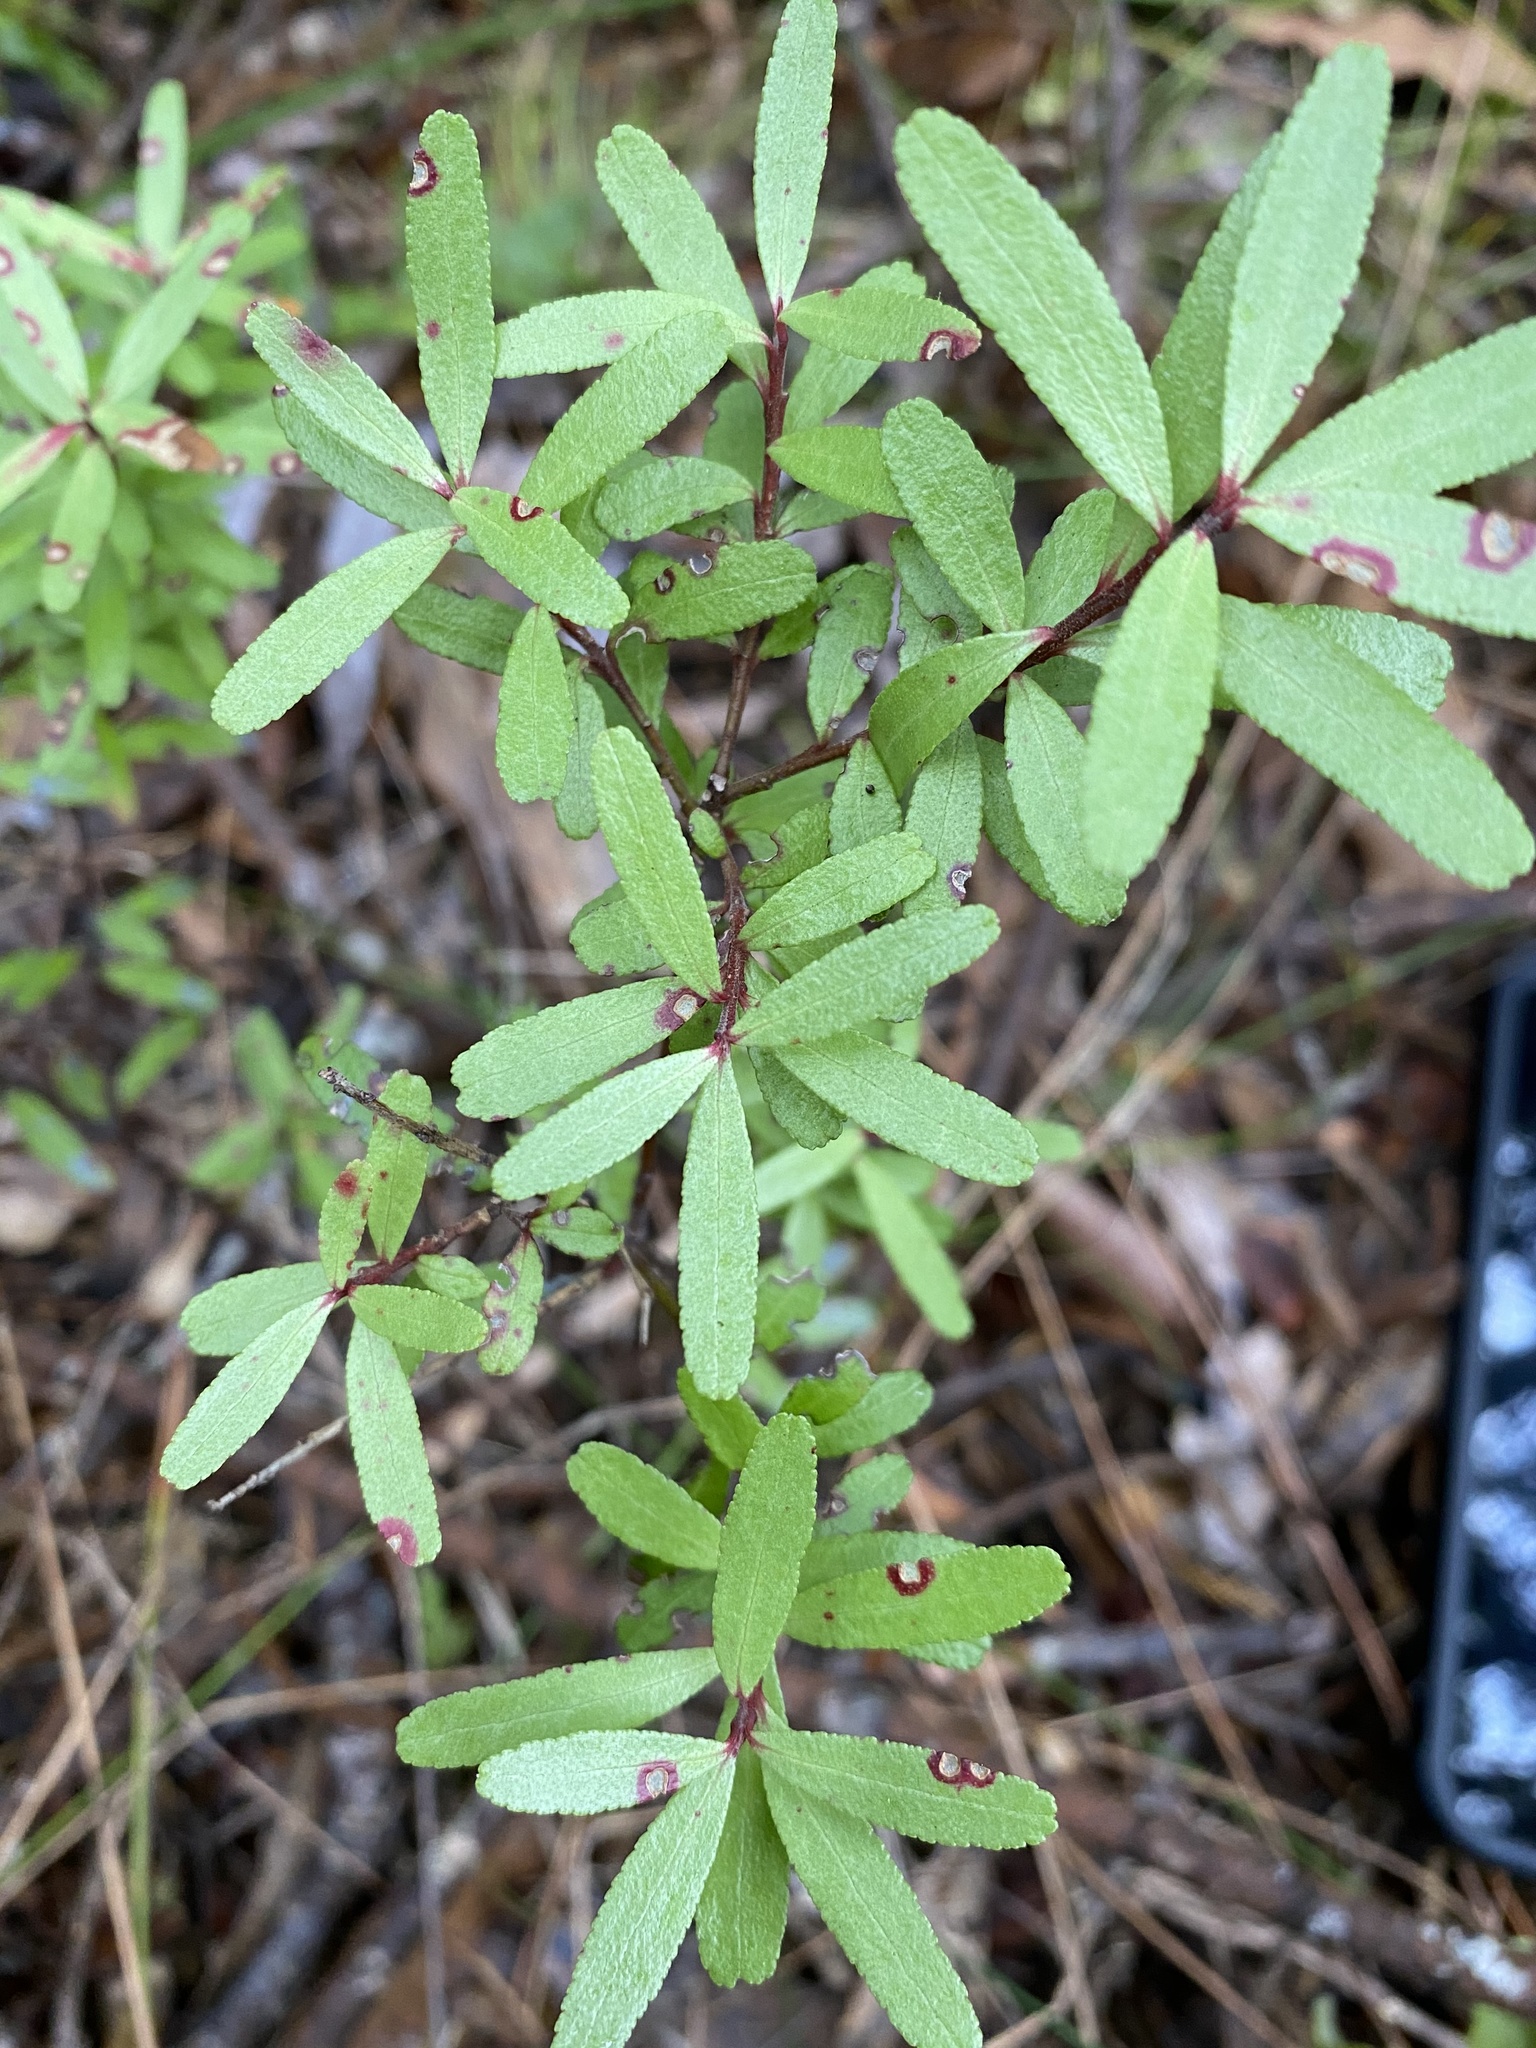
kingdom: Plantae
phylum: Tracheophyta
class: Magnoliopsida
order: Sapindales
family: Rutaceae
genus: Leionema
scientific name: Leionema nudum
